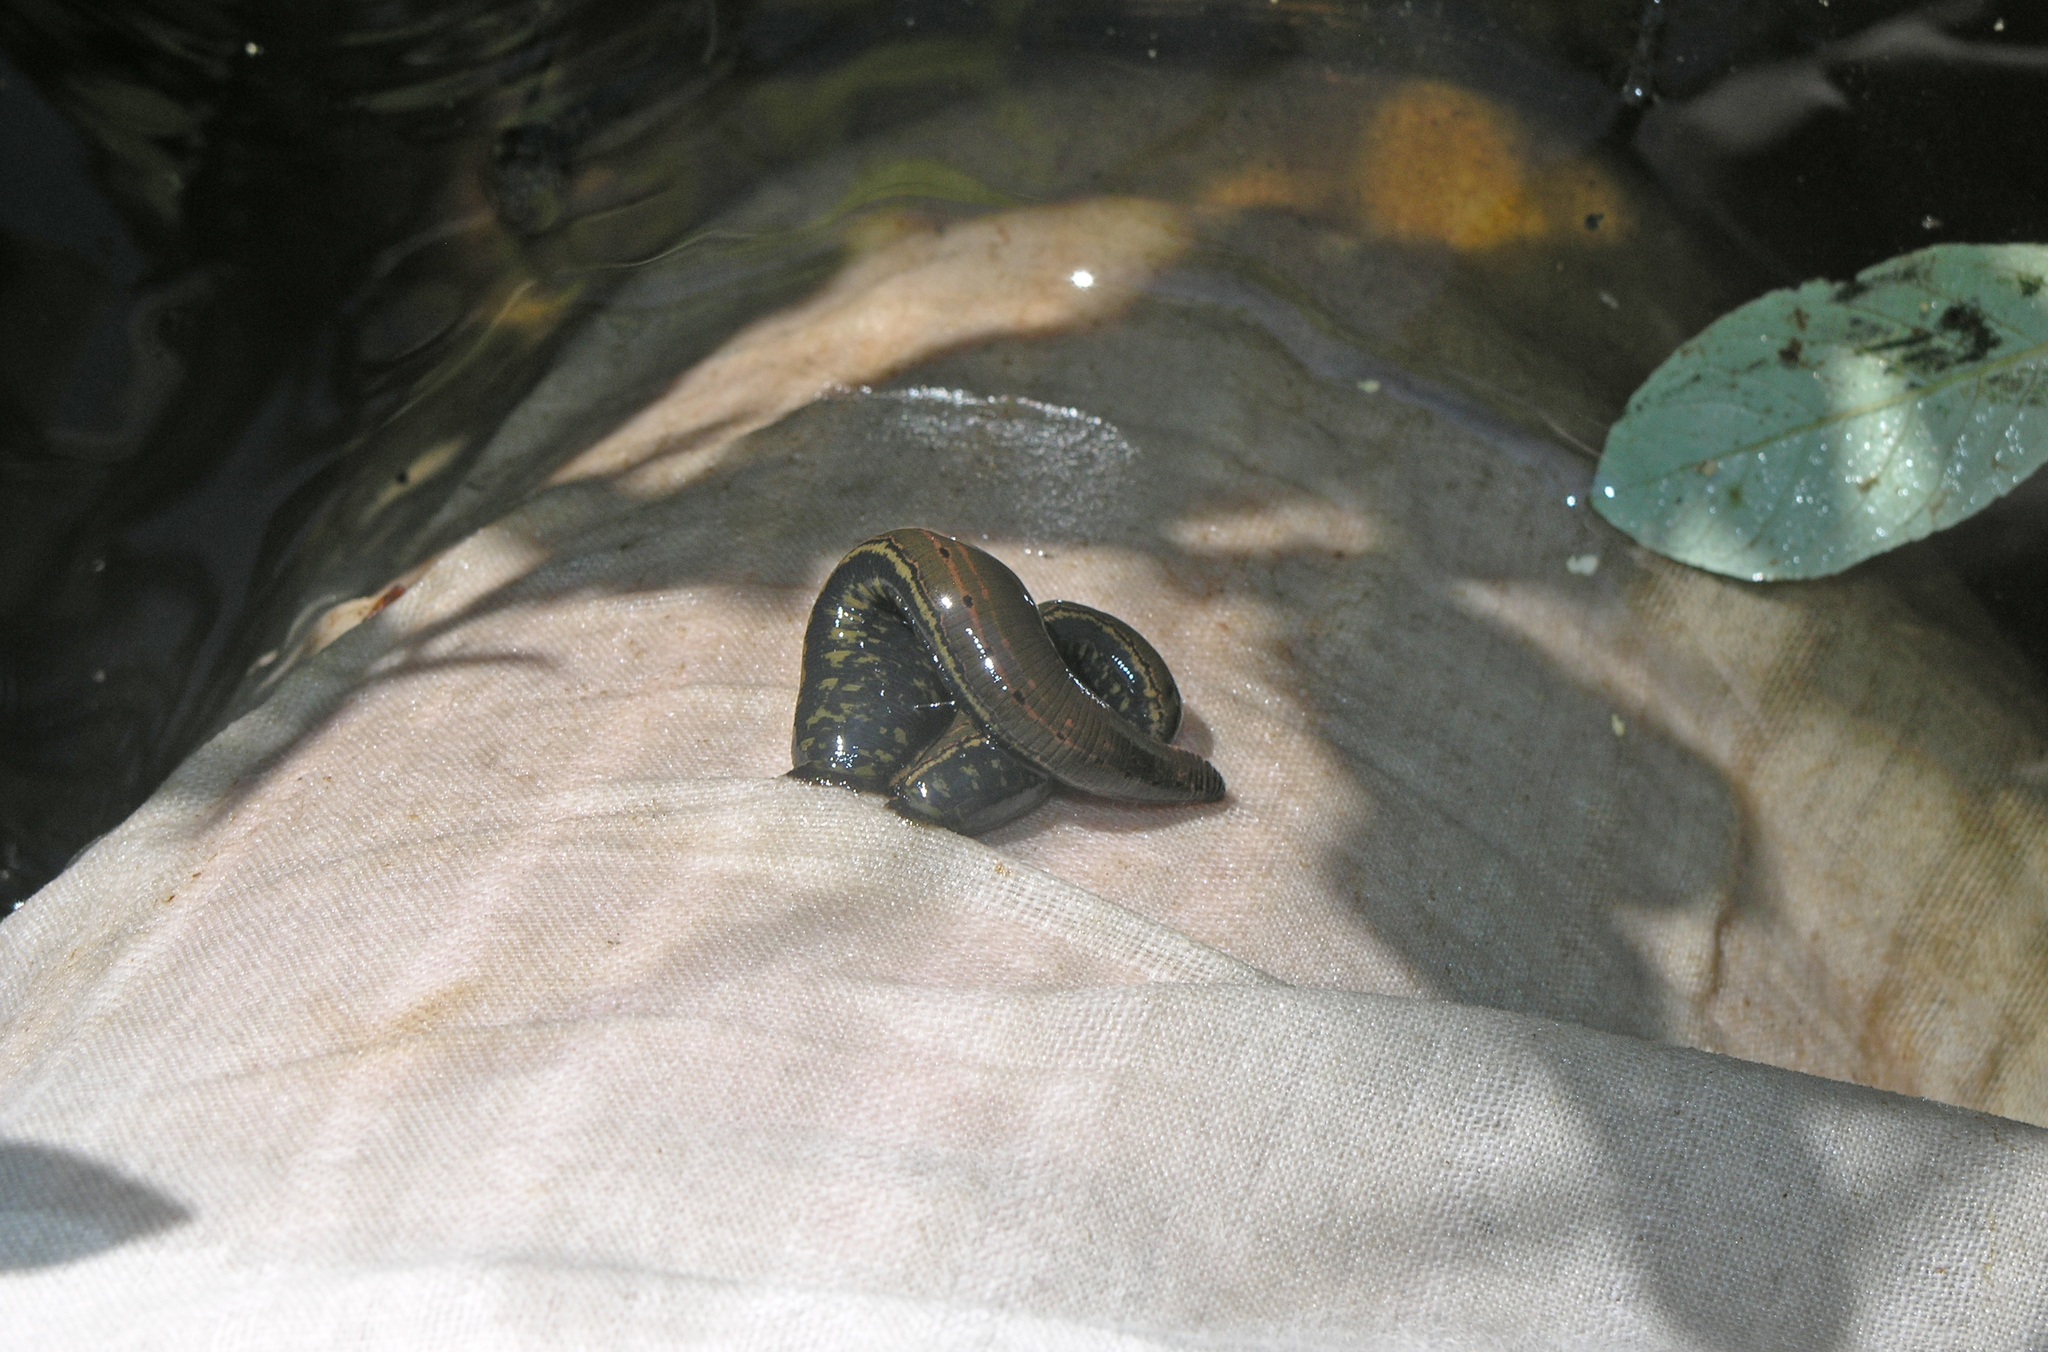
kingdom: Animalia
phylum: Annelida
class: Clitellata
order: Arhynchobdellida
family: Hirudinidae
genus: Hirudo
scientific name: Hirudo orientalis
